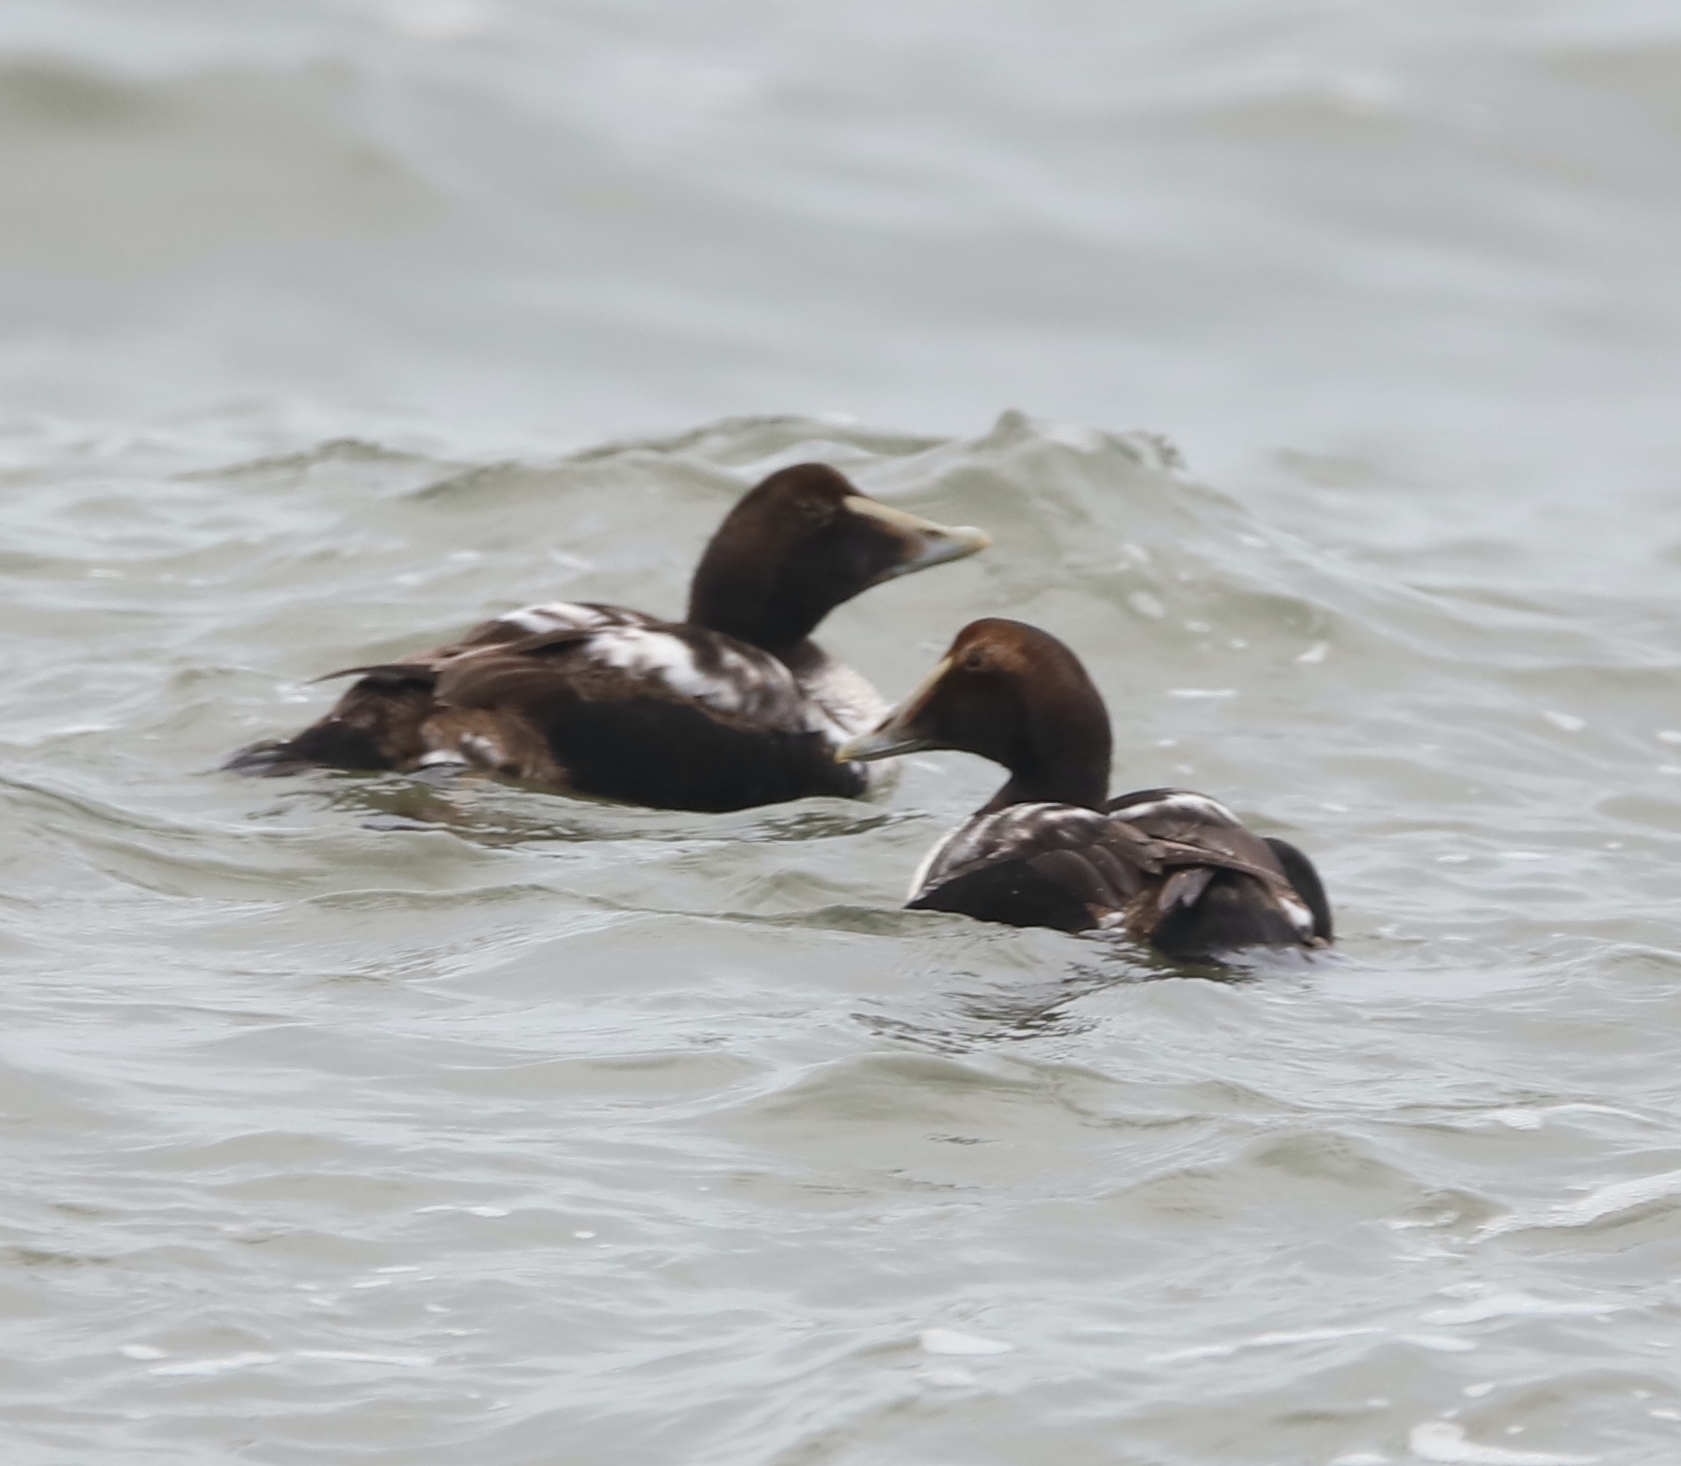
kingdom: Animalia
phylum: Chordata
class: Aves
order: Anseriformes
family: Anatidae
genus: Somateria
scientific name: Somateria mollissima
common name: Common eider
